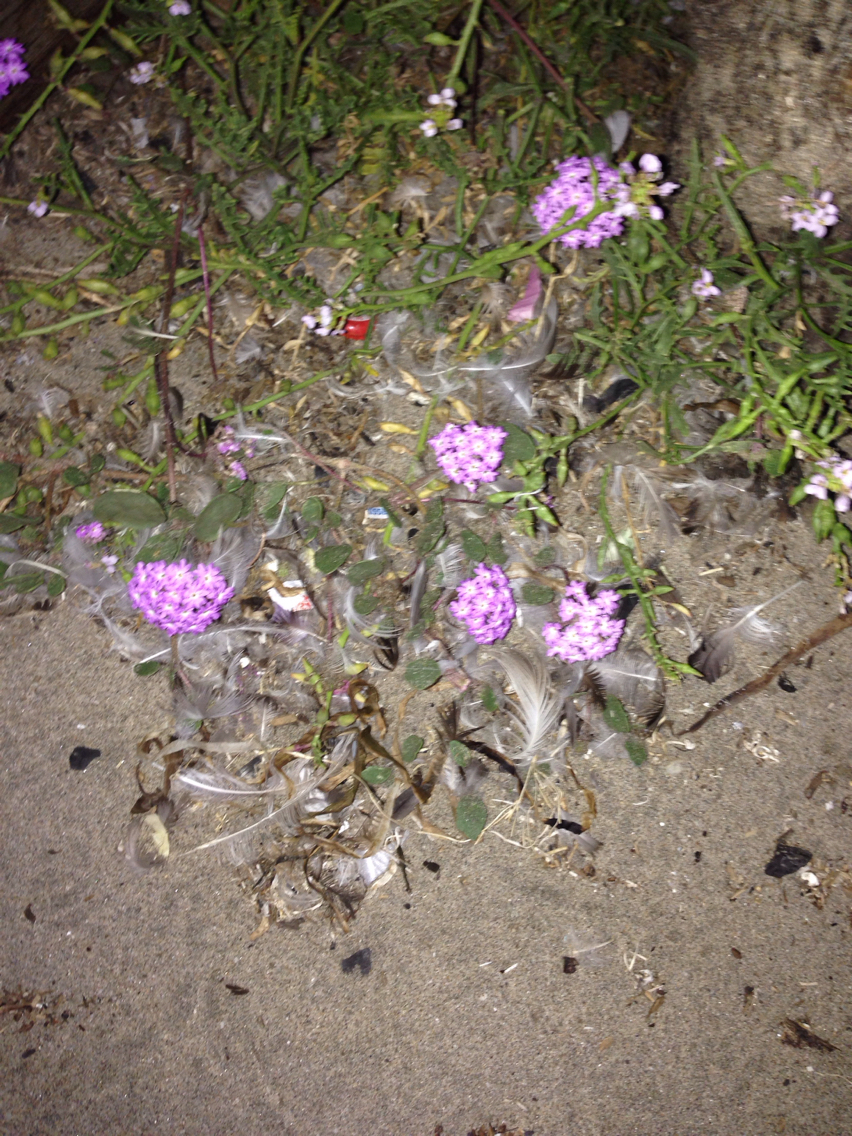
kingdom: Plantae
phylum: Tracheophyta
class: Magnoliopsida
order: Caryophyllales
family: Nyctaginaceae
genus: Abronia
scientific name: Abronia umbellata
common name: Sand-verbena
